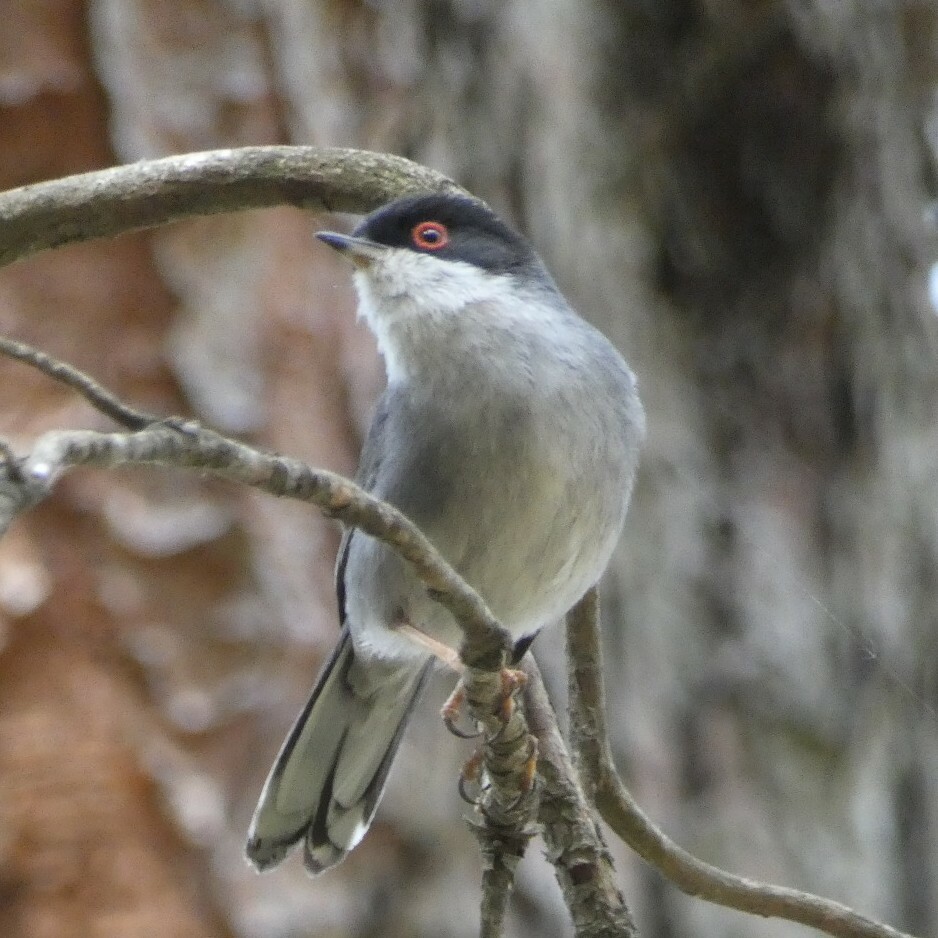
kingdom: Animalia
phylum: Chordata
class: Aves
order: Passeriformes
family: Sylviidae
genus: Curruca
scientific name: Curruca melanocephala
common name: Sardinian warbler
